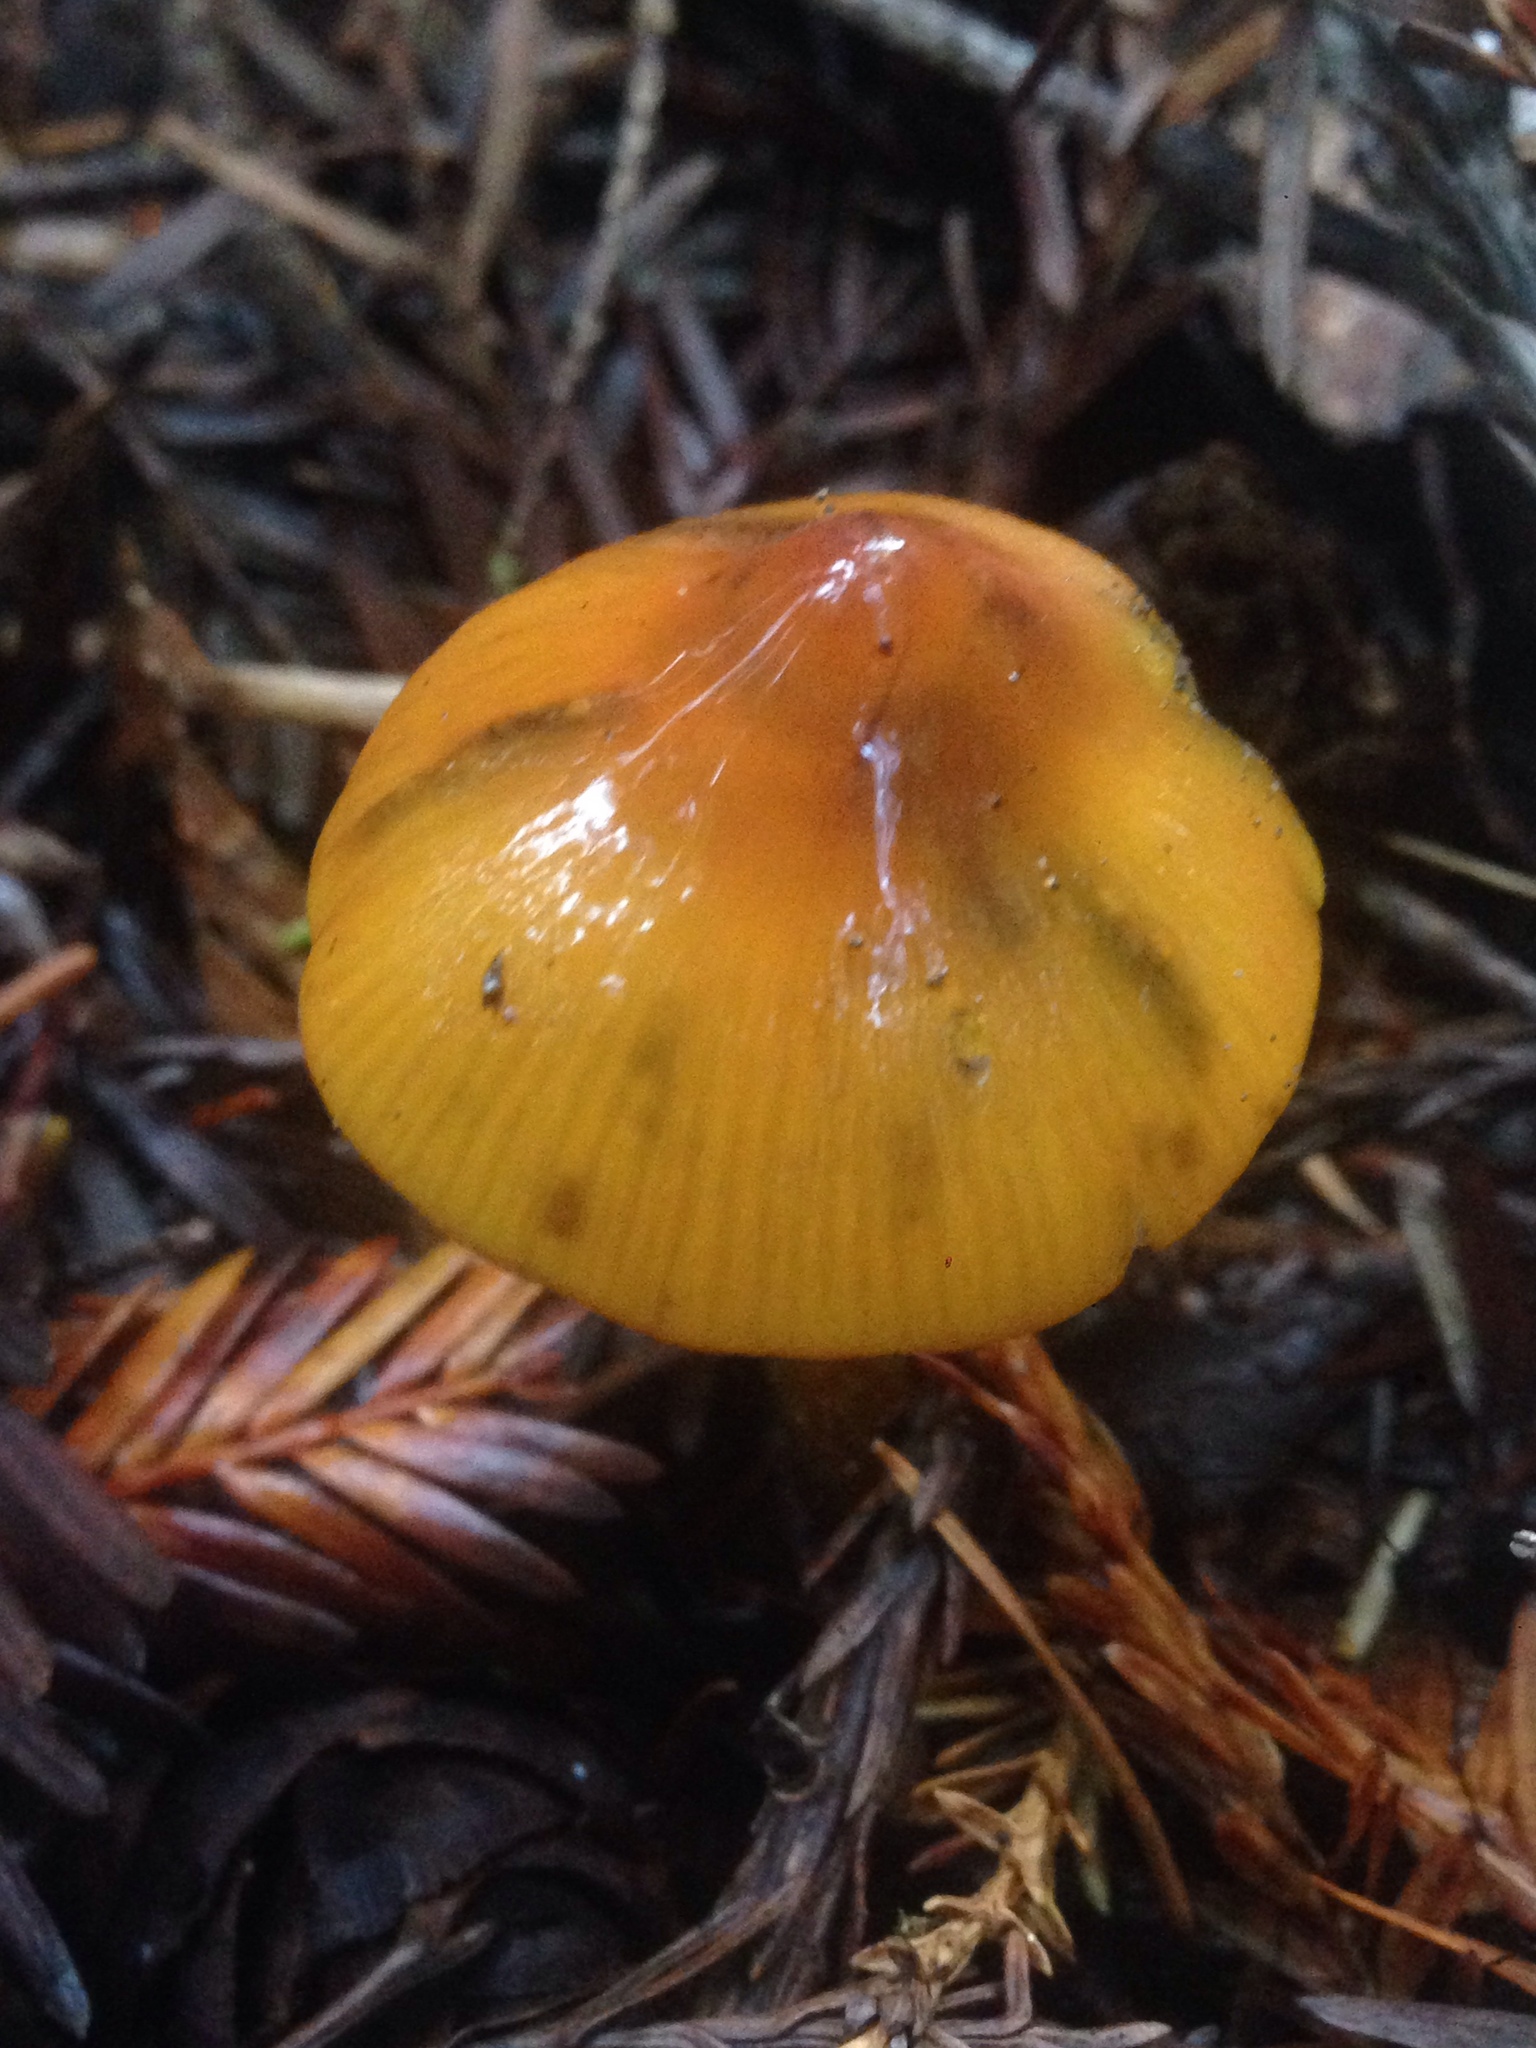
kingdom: Fungi
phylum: Basidiomycota
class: Agaricomycetes
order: Agaricales
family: Hygrophoraceae
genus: Hygrocybe
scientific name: Hygrocybe singeri
